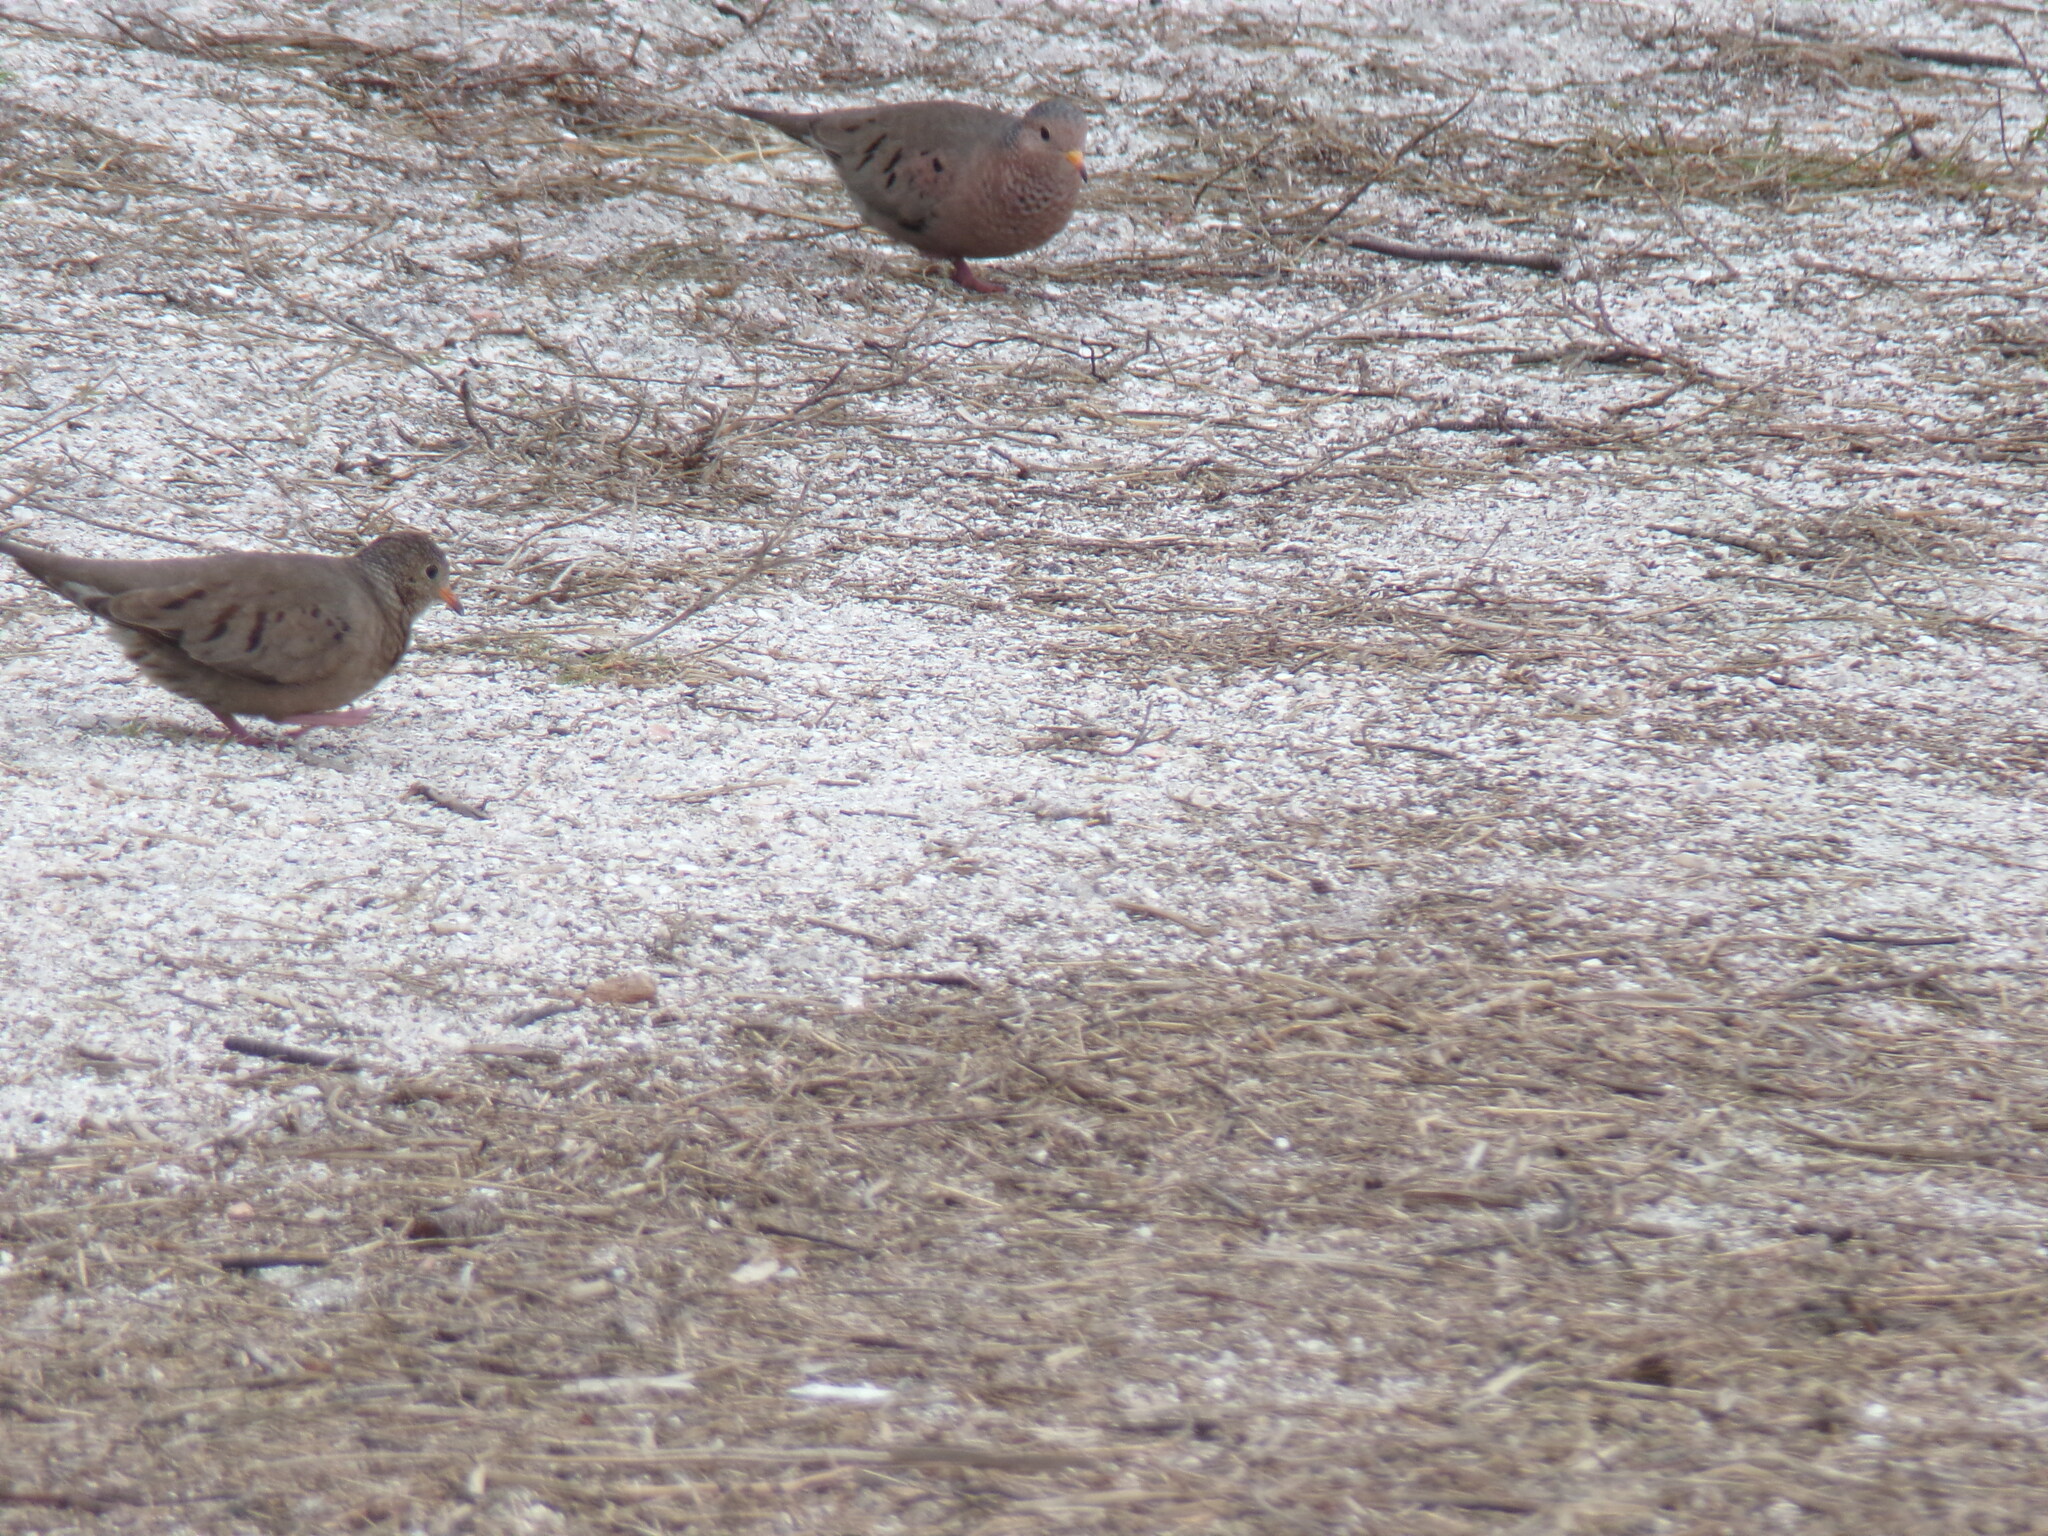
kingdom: Animalia
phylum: Chordata
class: Aves
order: Columbiformes
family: Columbidae
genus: Columbina
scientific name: Columbina passerina
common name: Common ground-dove
